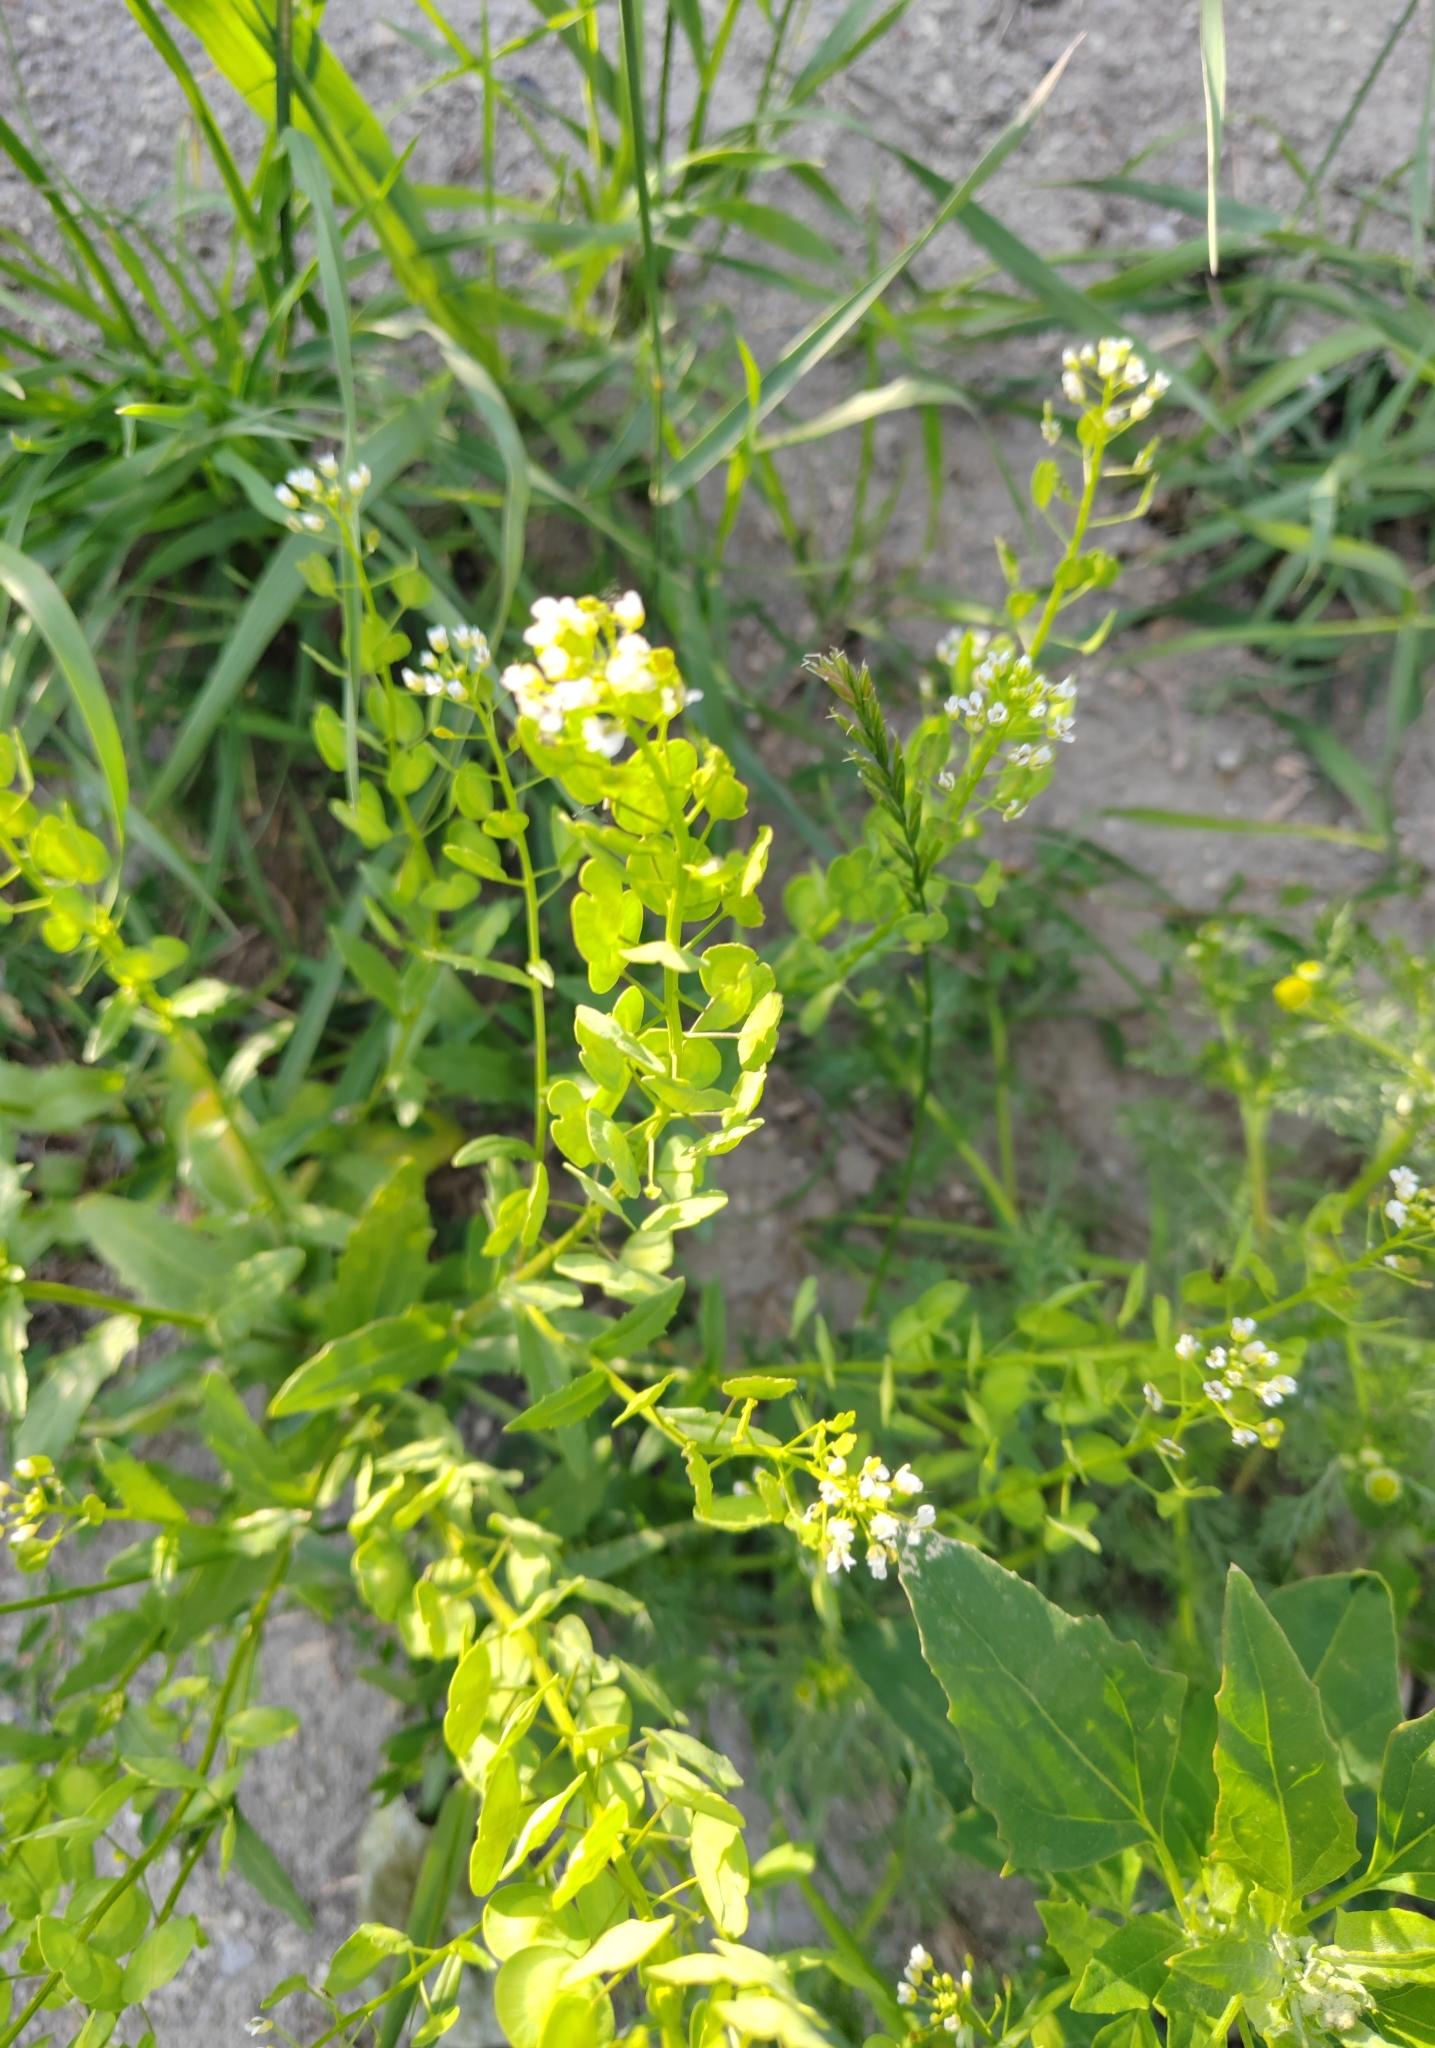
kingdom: Plantae
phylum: Tracheophyta
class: Magnoliopsida
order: Brassicales
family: Brassicaceae
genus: Thlaspi
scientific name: Thlaspi arvense
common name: Field pennycress
